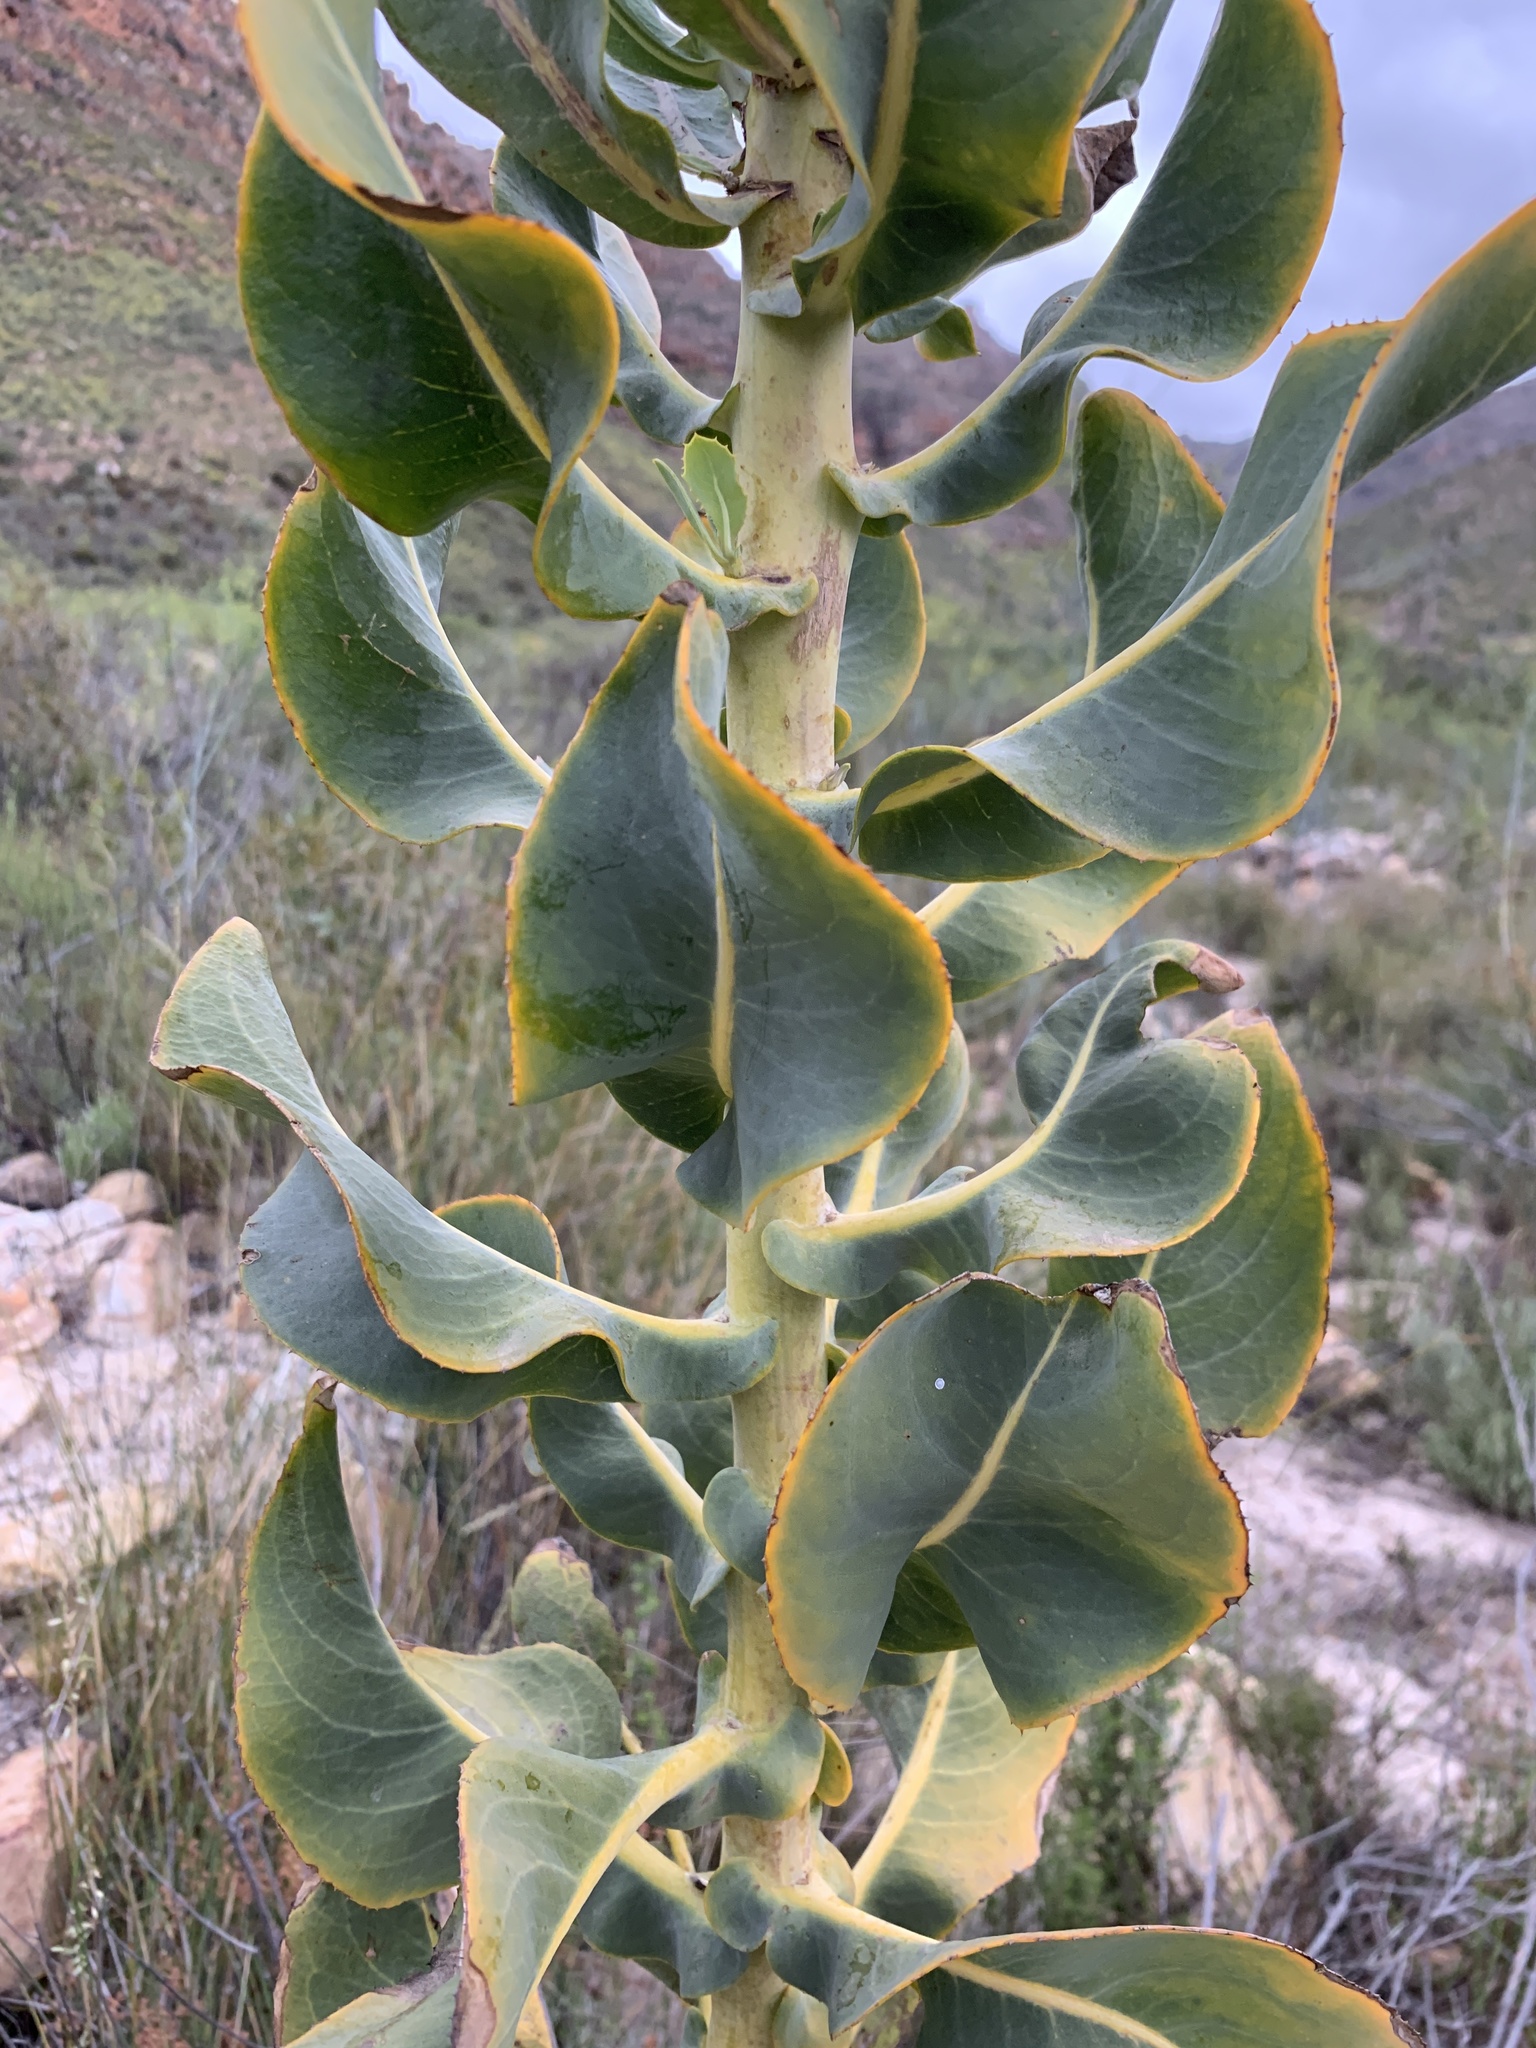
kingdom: Plantae
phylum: Tracheophyta
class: Magnoliopsida
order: Asterales
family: Asteraceae
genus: Othonna
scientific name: Othonna parviflora
